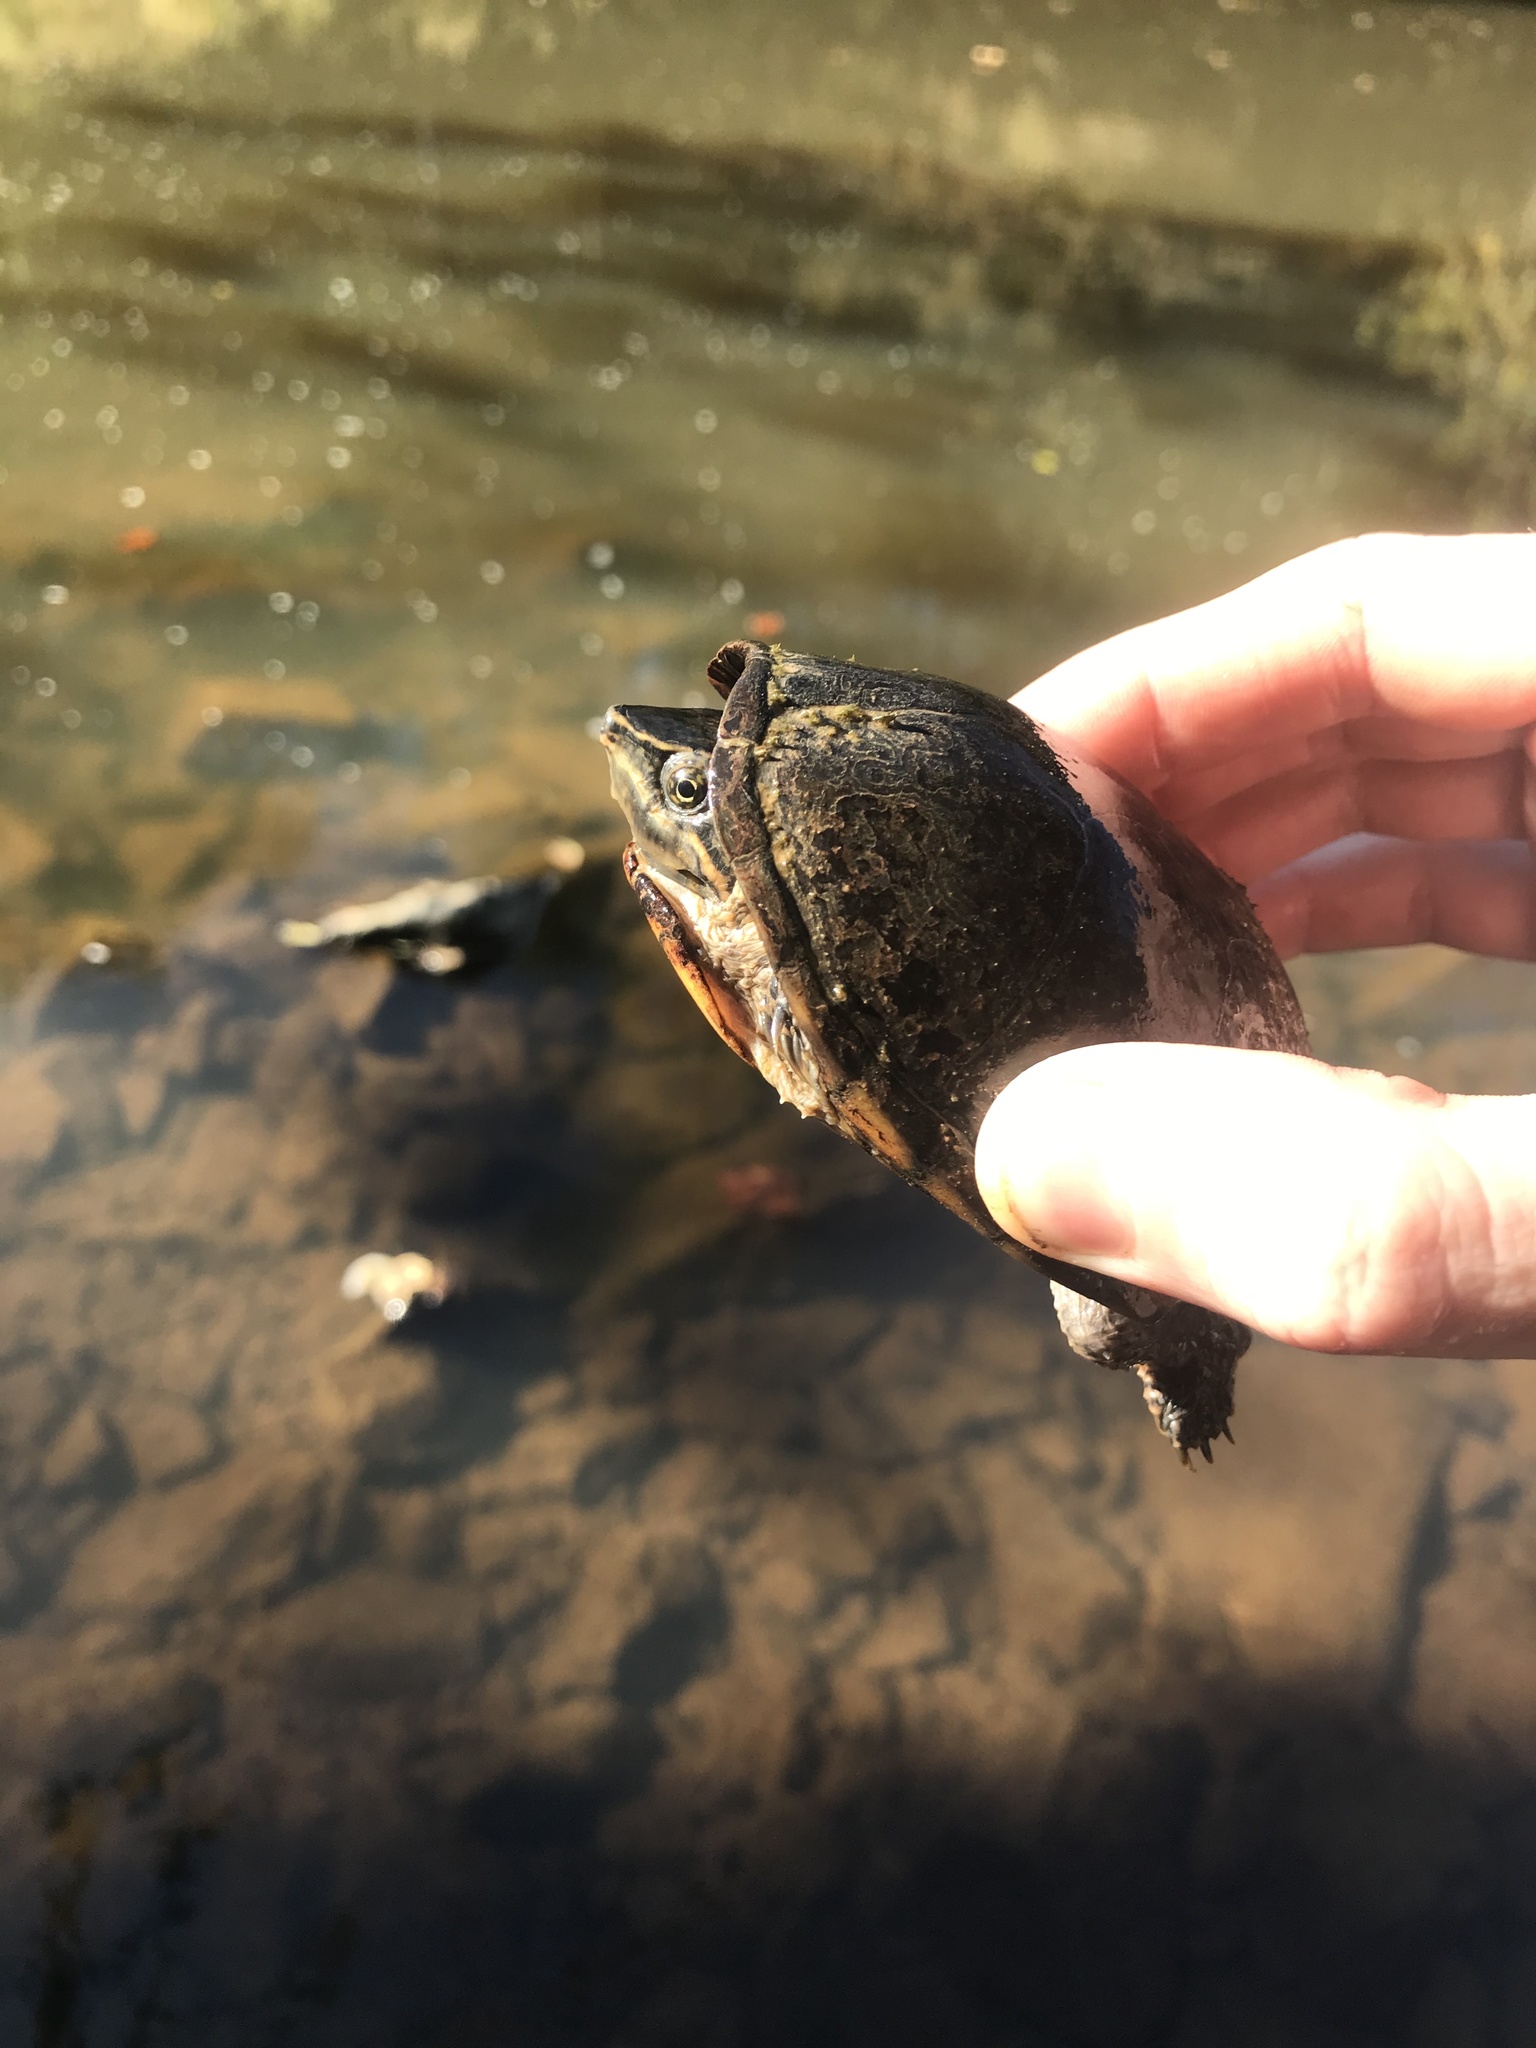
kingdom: Animalia
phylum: Chordata
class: Testudines
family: Kinosternidae
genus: Sternotherus
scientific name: Sternotherus odoratus
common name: Common musk turtle
